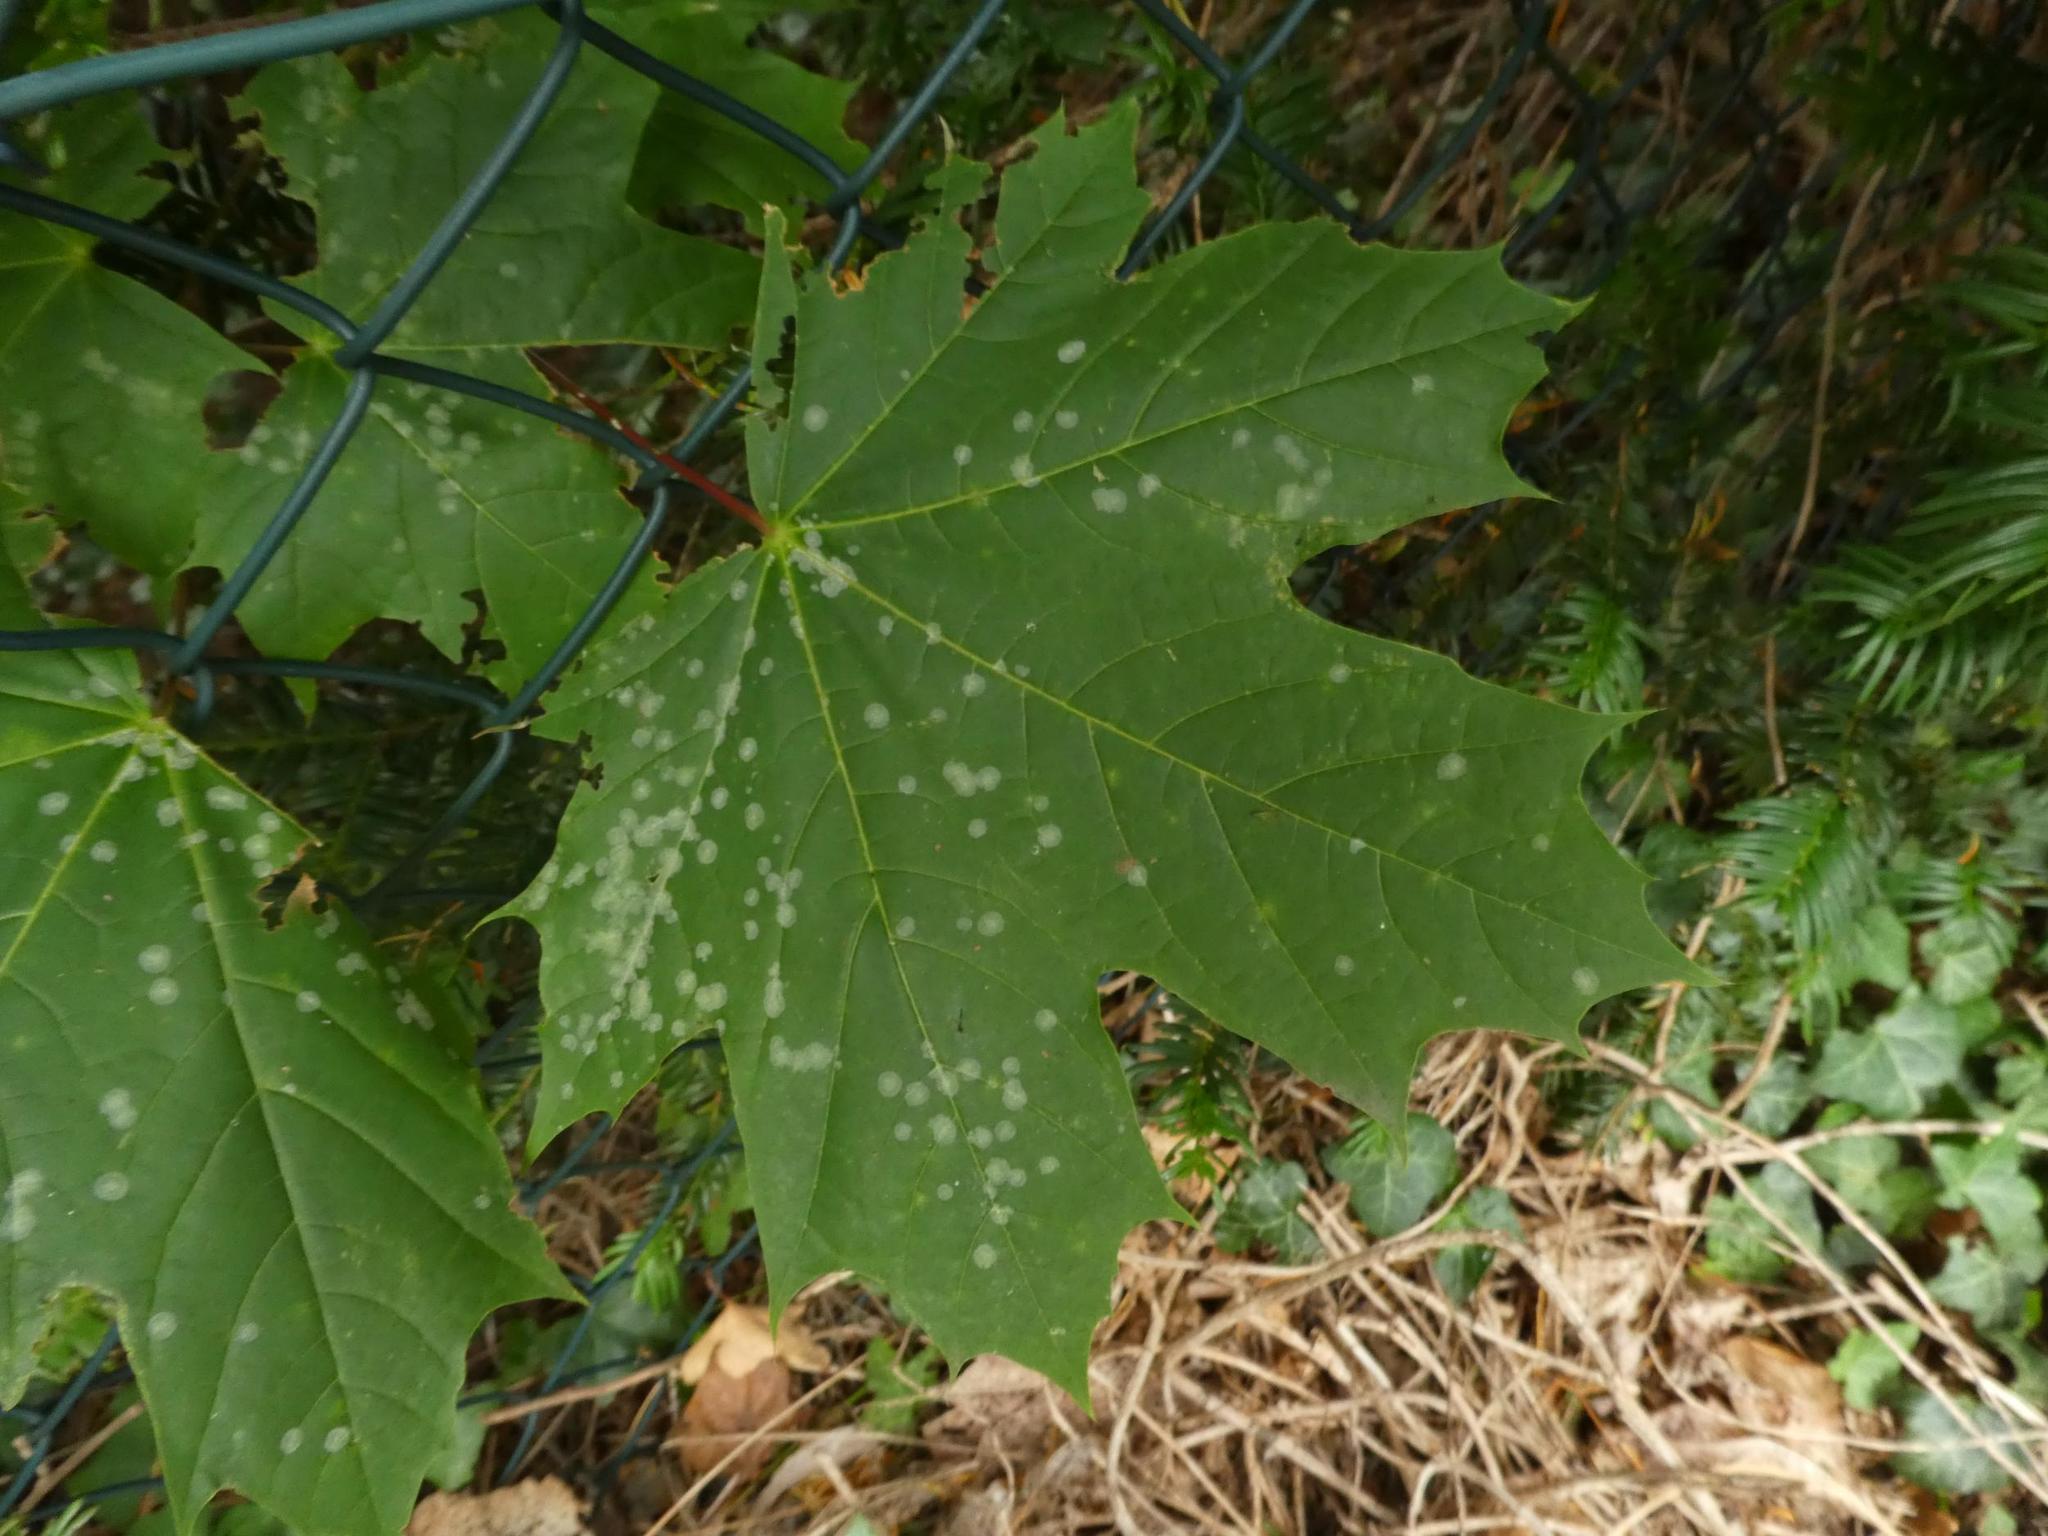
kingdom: Plantae
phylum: Tracheophyta
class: Magnoliopsida
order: Sapindales
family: Sapindaceae
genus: Acer
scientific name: Acer platanoides
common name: Norway maple
